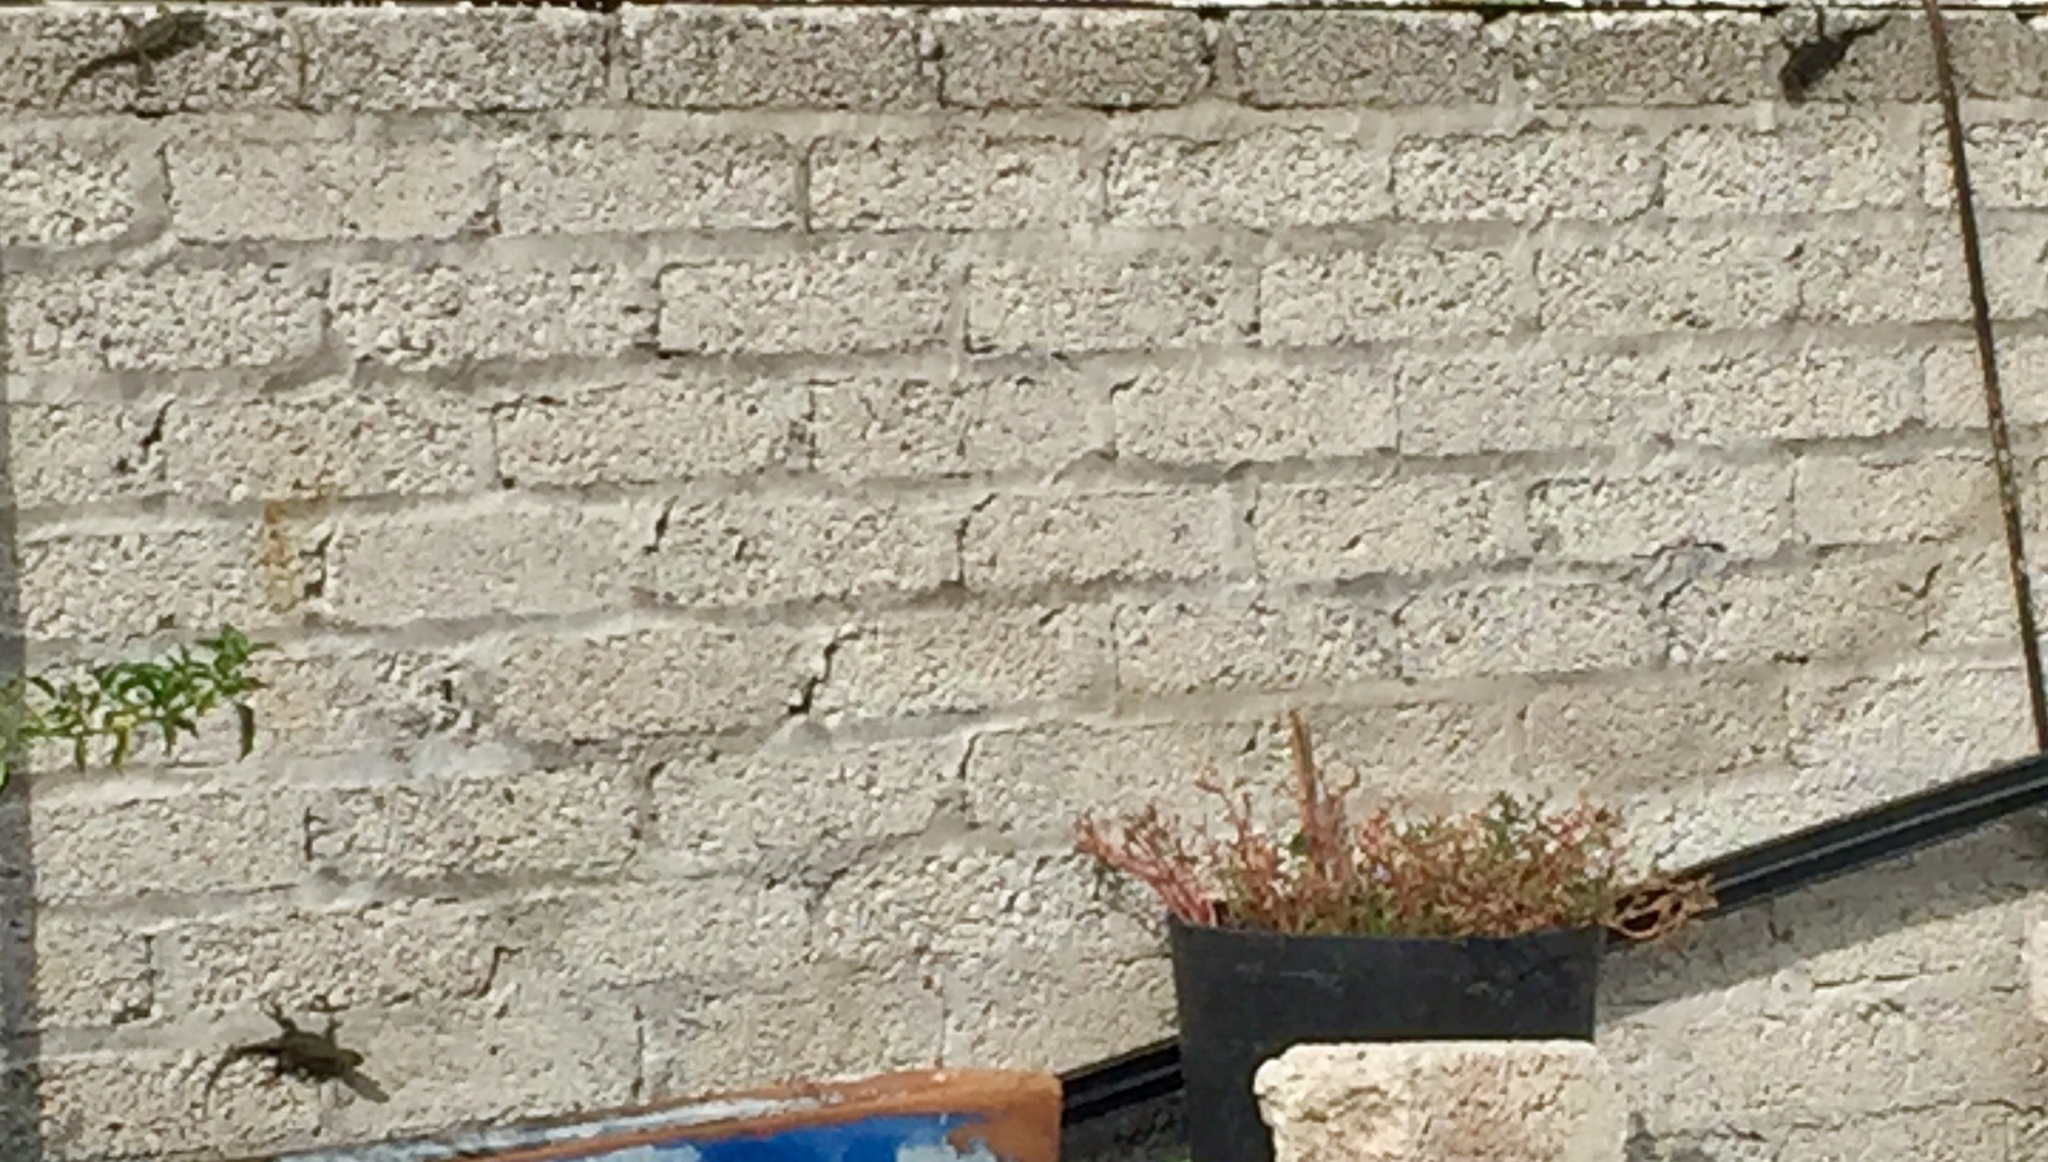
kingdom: Animalia
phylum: Chordata
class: Squamata
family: Phrynosomatidae
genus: Sceloporus
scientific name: Sceloporus grammicus
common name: Mesquite lizard
